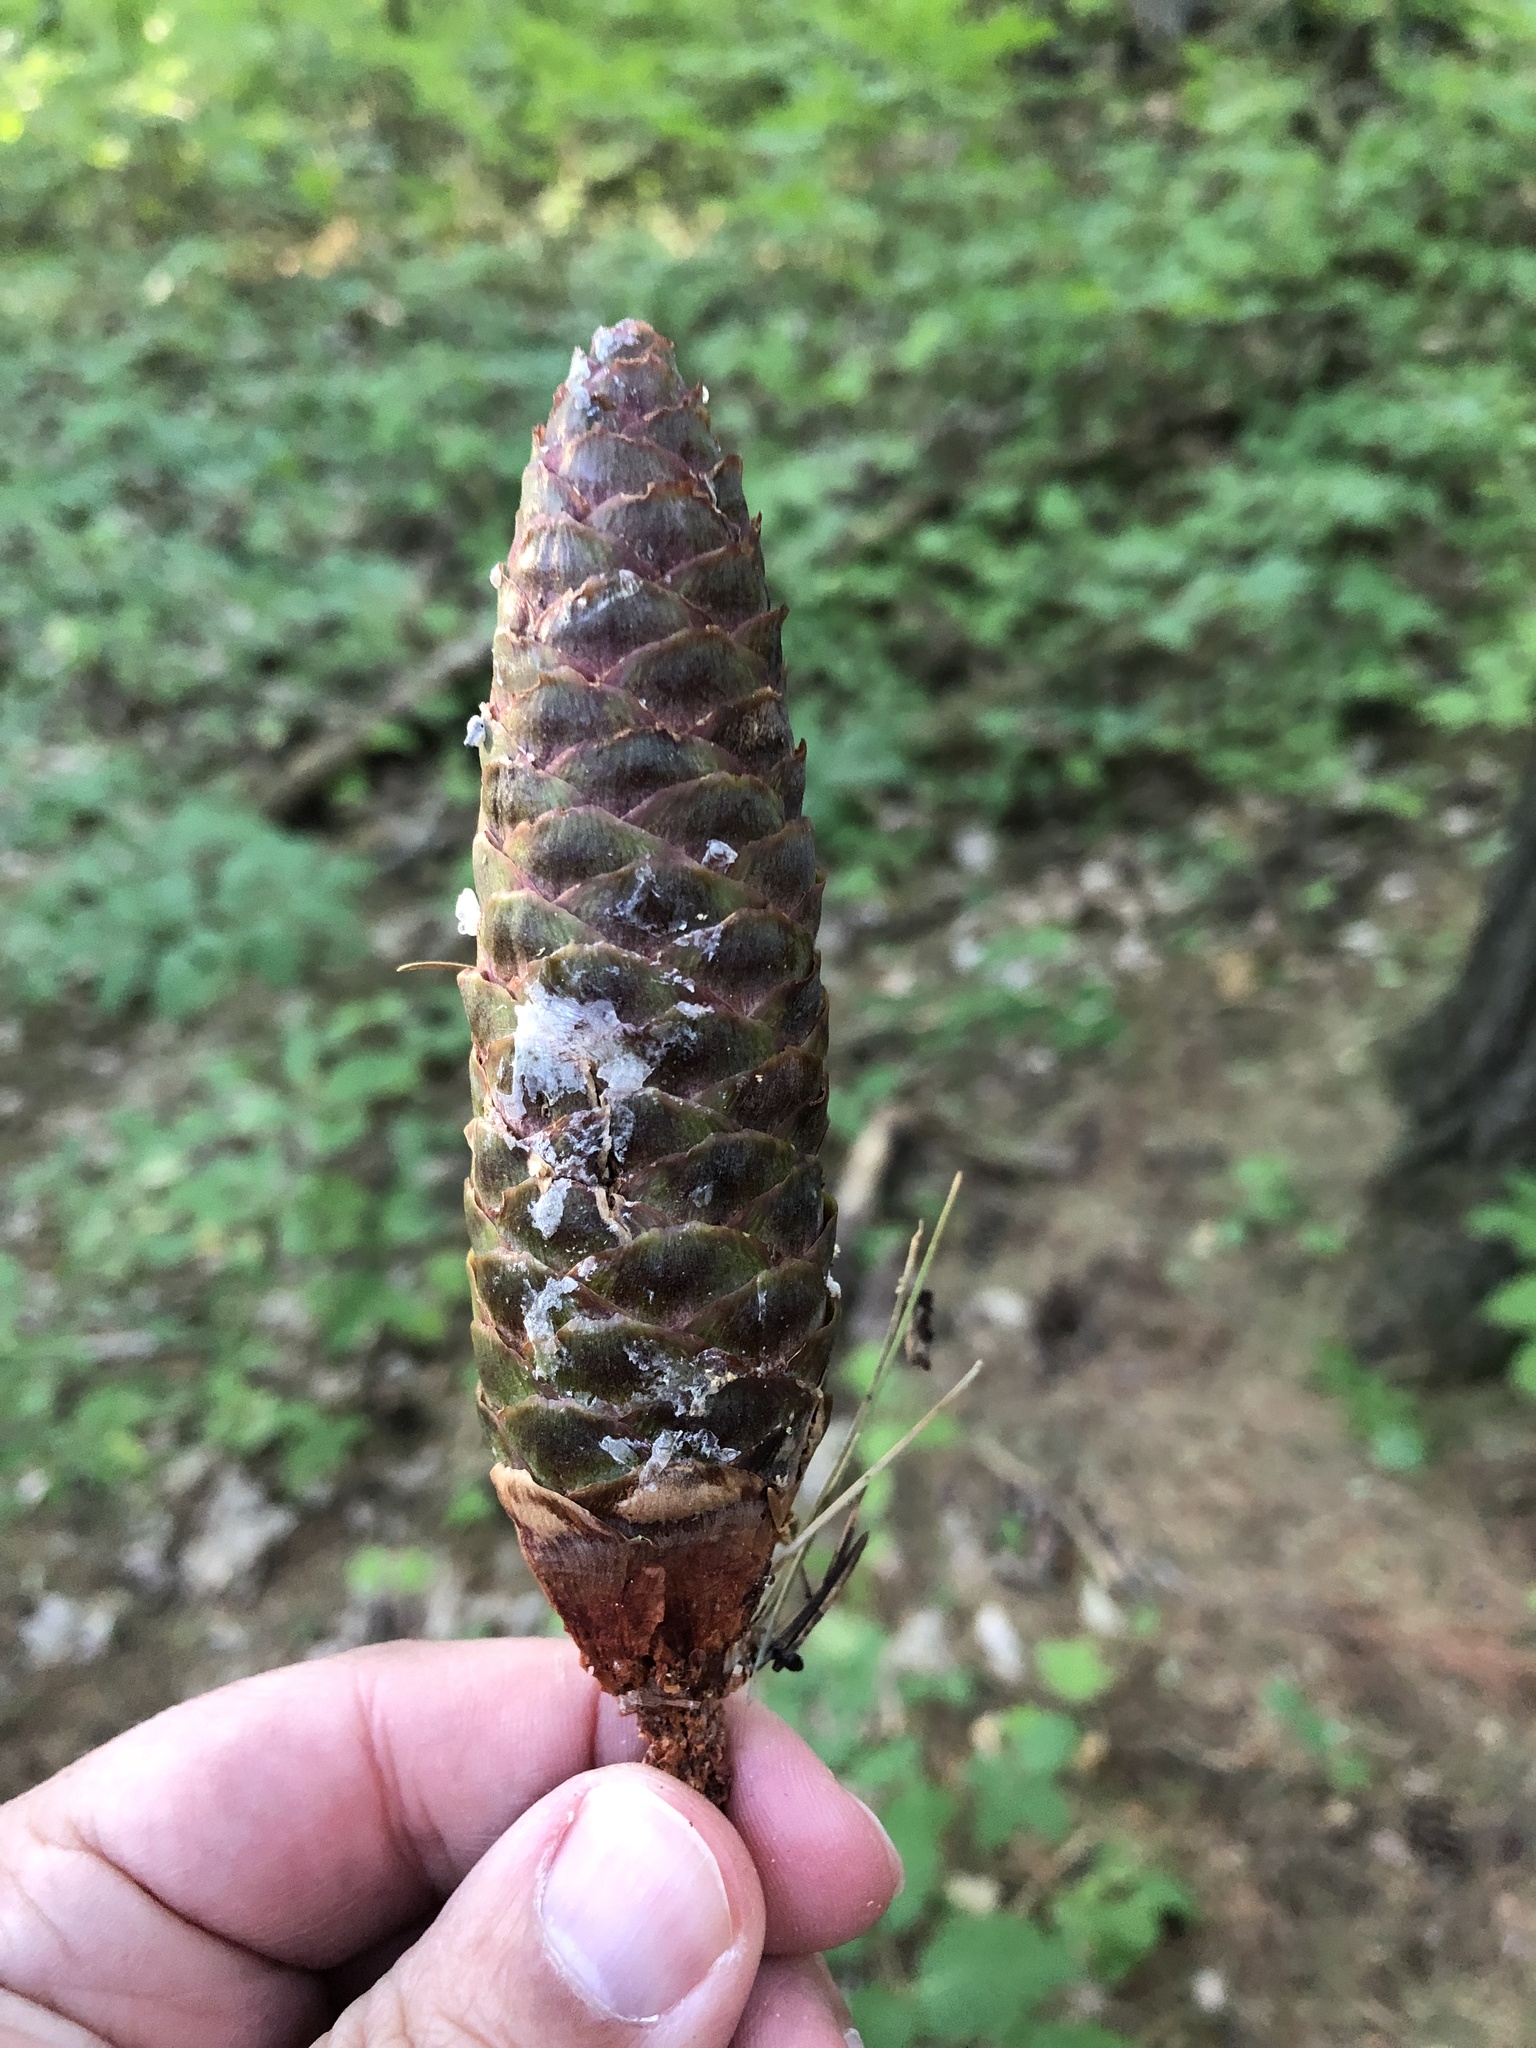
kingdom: Plantae
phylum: Tracheophyta
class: Pinopsida
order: Pinales
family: Pinaceae
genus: Picea
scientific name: Picea abies
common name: Norway spruce
